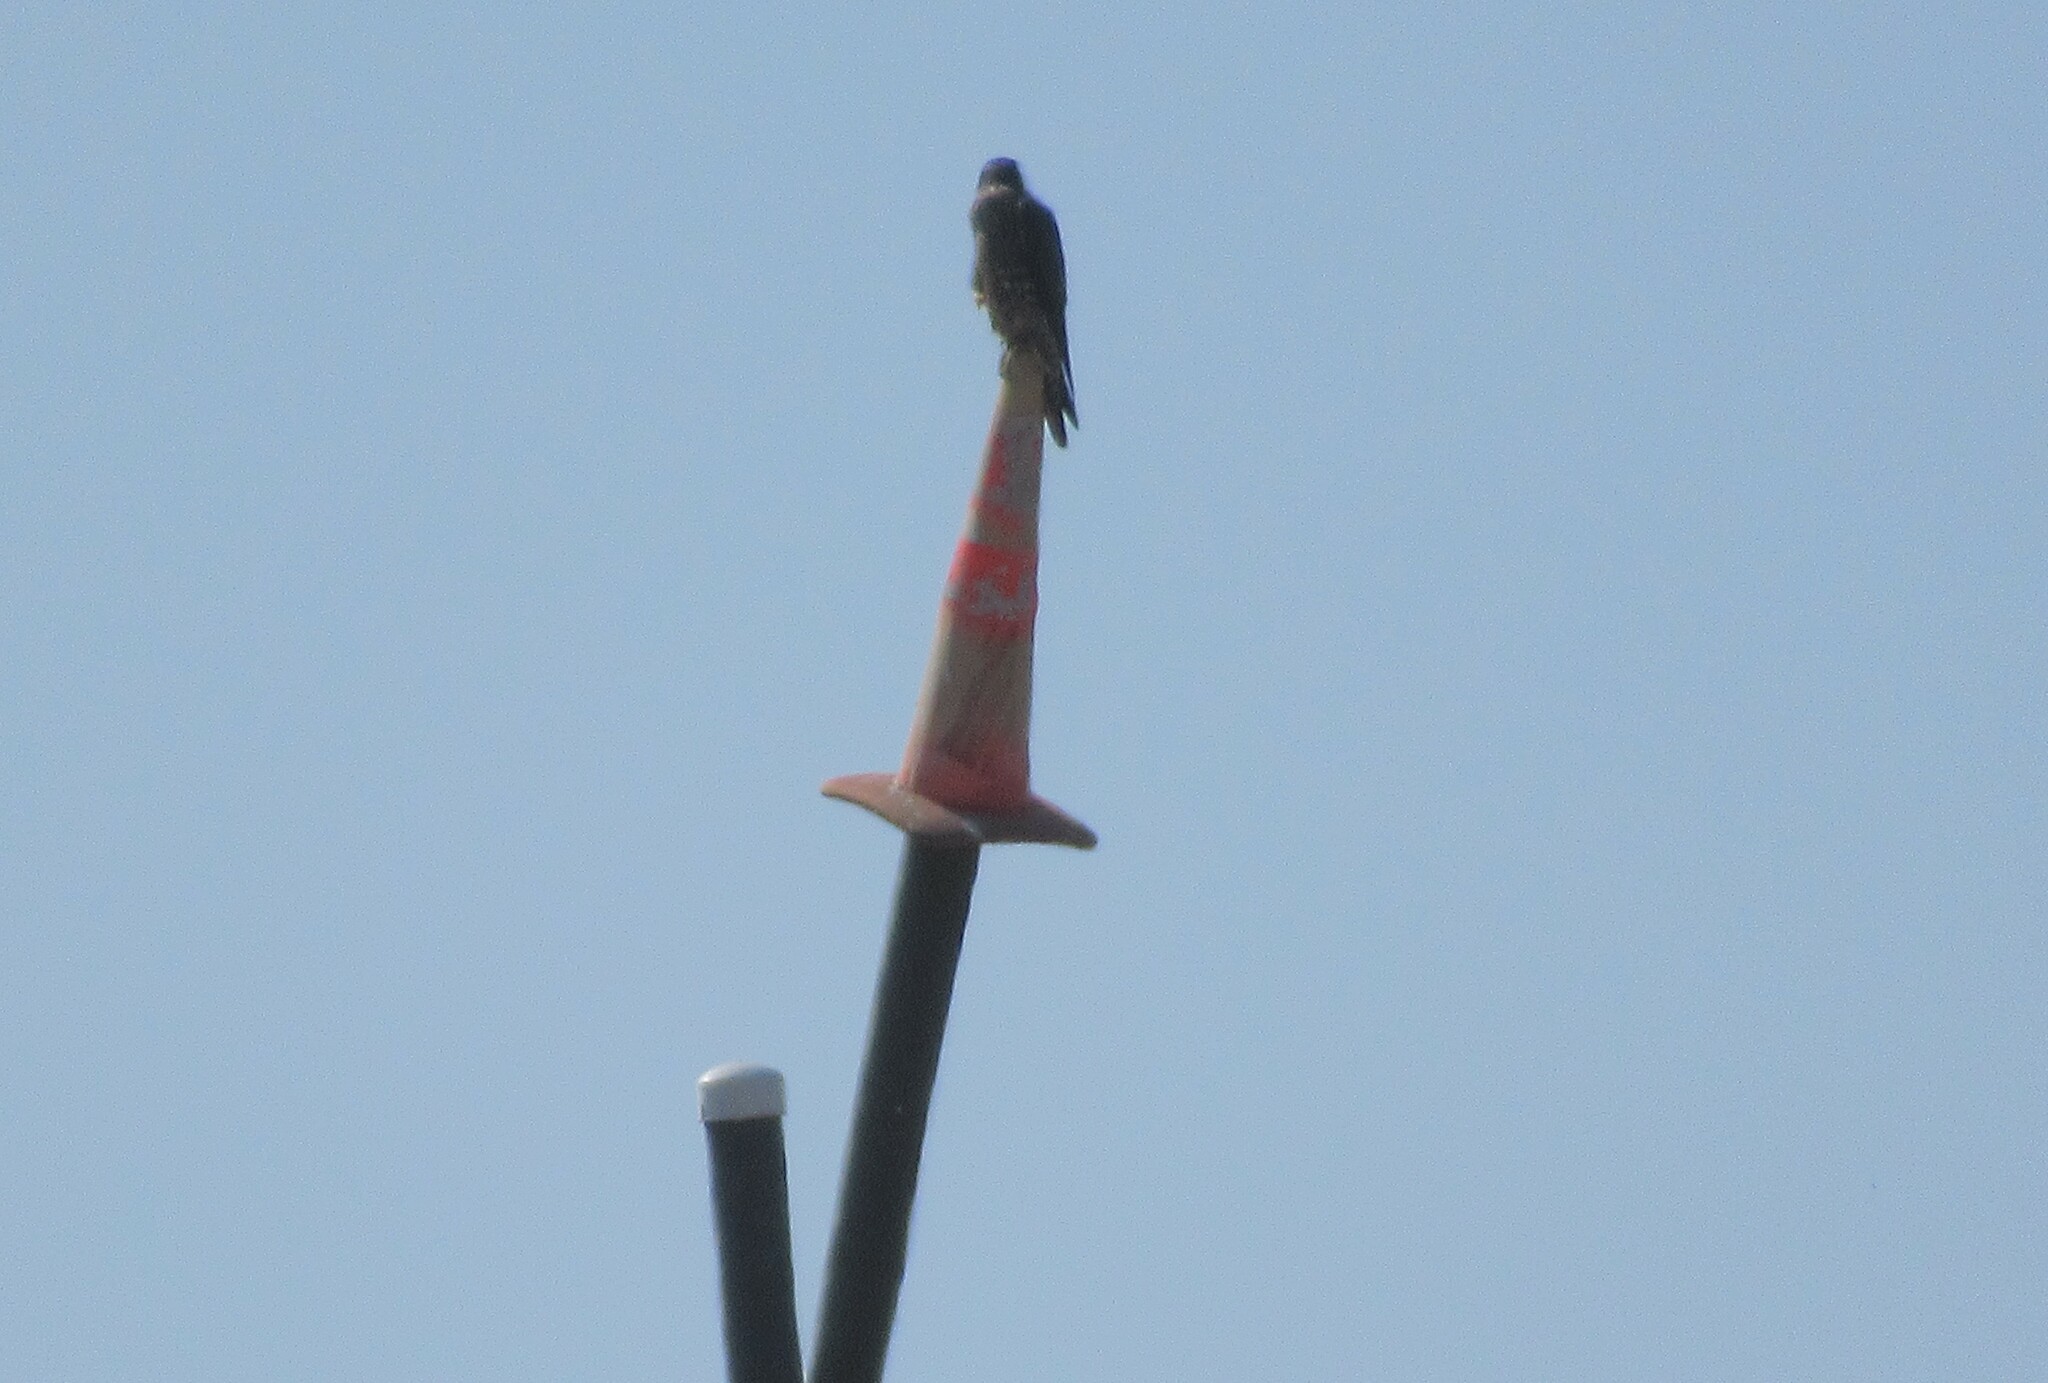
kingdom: Animalia
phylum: Chordata
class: Aves
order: Falconiformes
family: Falconidae
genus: Falco
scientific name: Falco peregrinus
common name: Peregrine falcon
